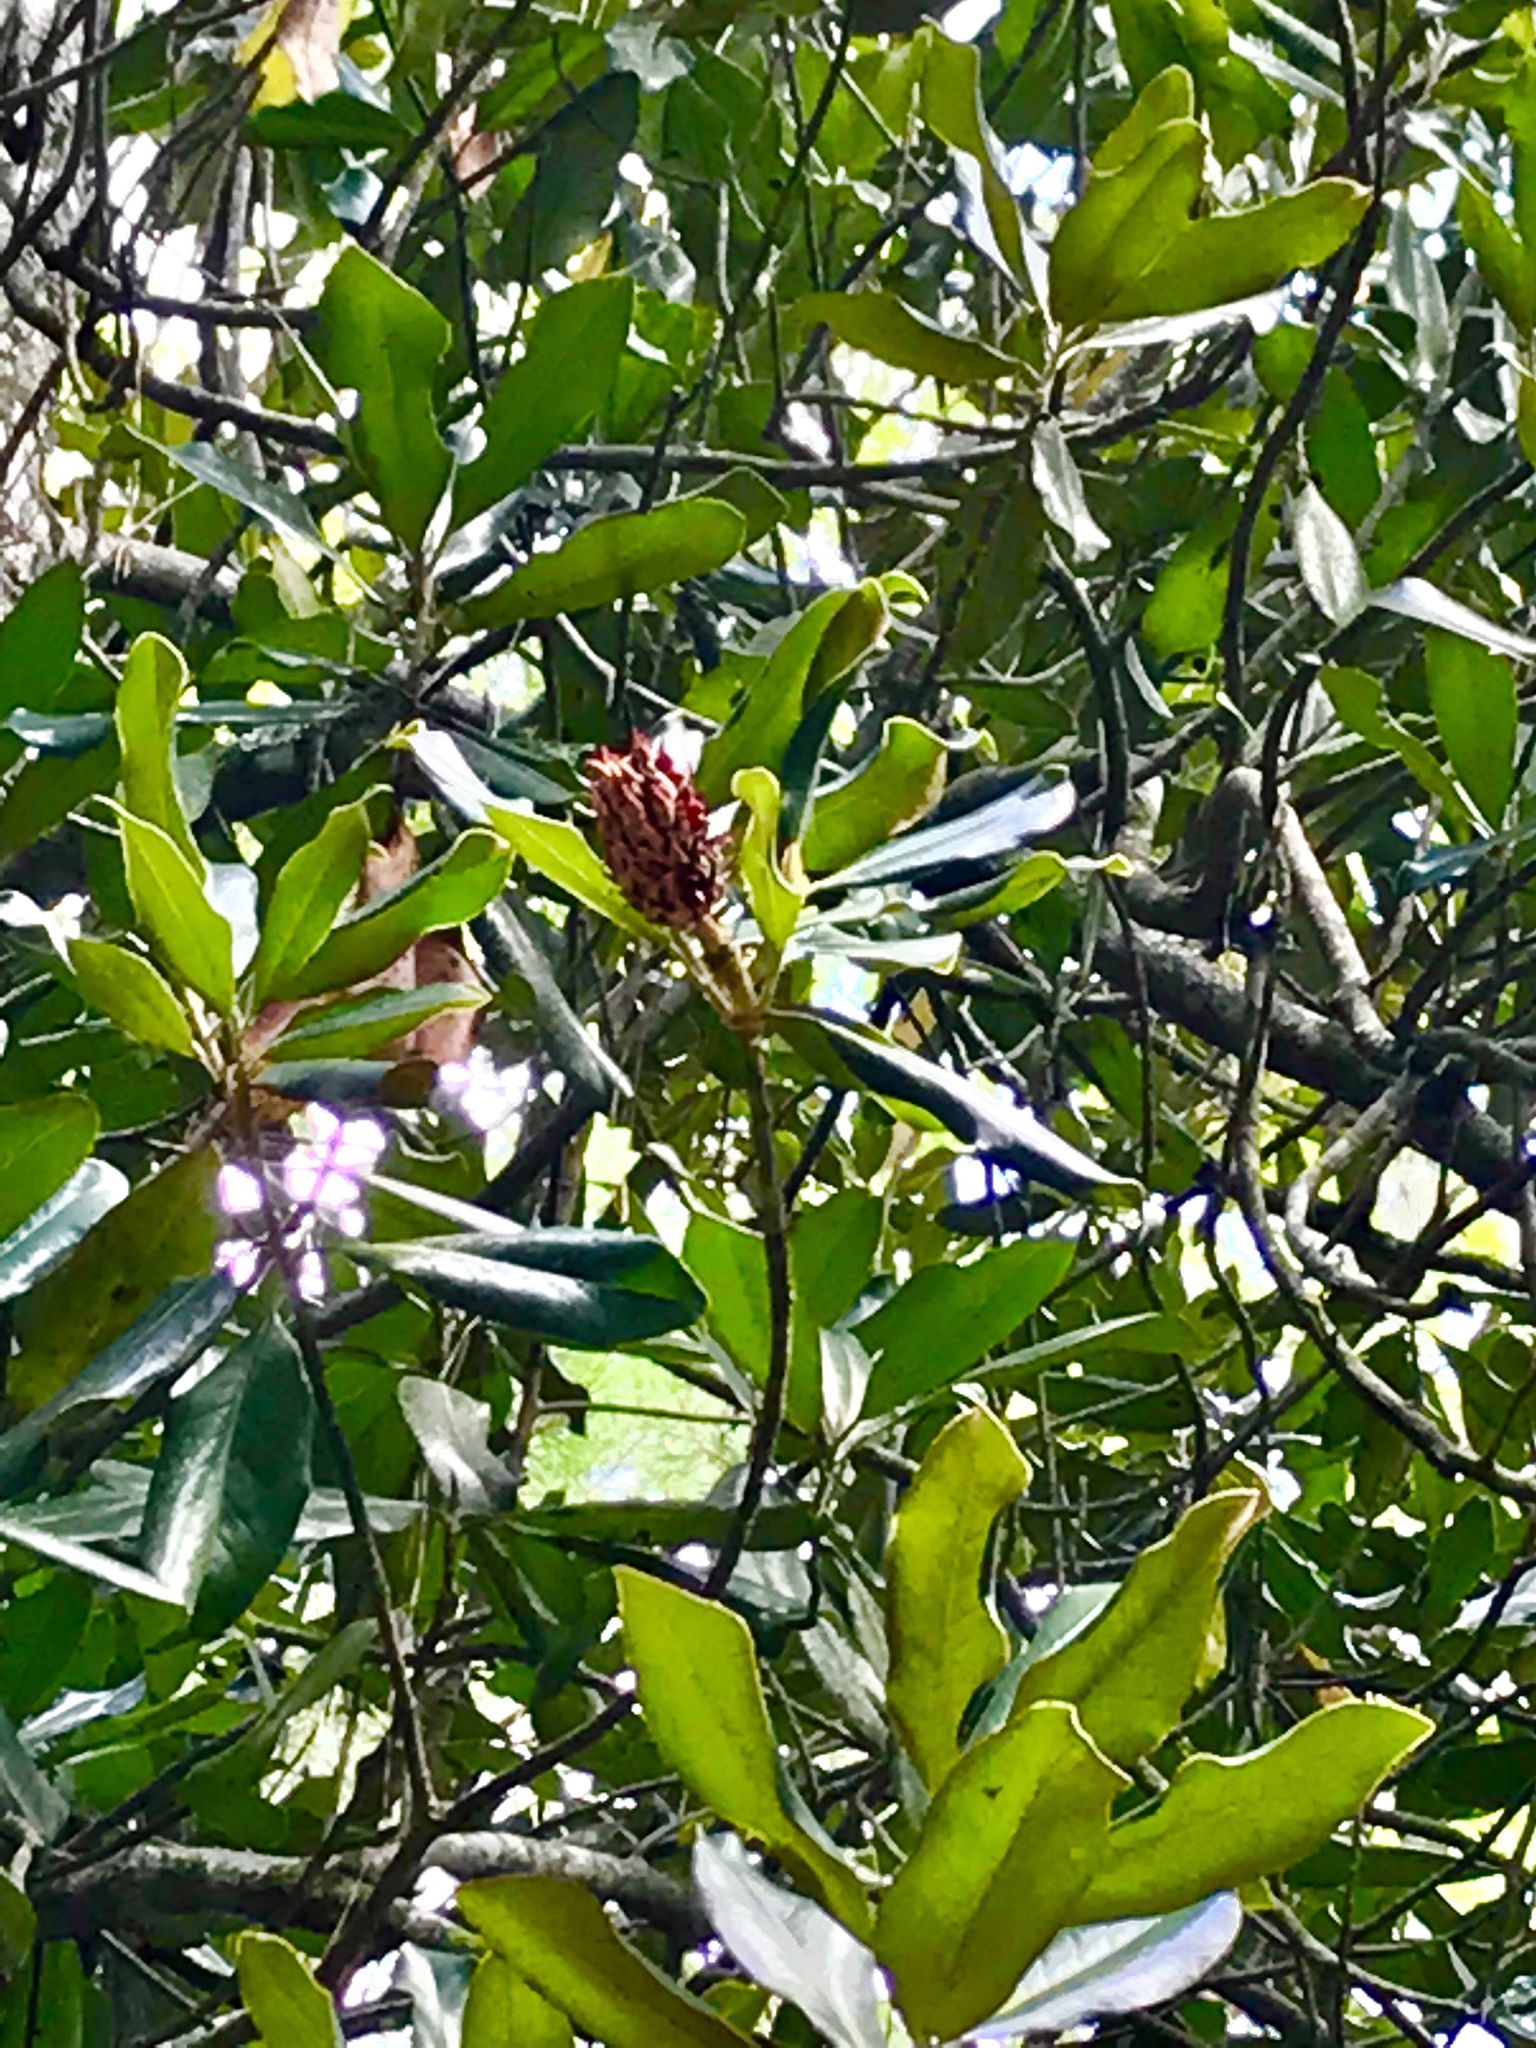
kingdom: Plantae
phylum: Tracheophyta
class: Magnoliopsida
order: Magnoliales
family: Magnoliaceae
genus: Magnolia
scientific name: Magnolia grandiflora
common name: Southern magnolia
